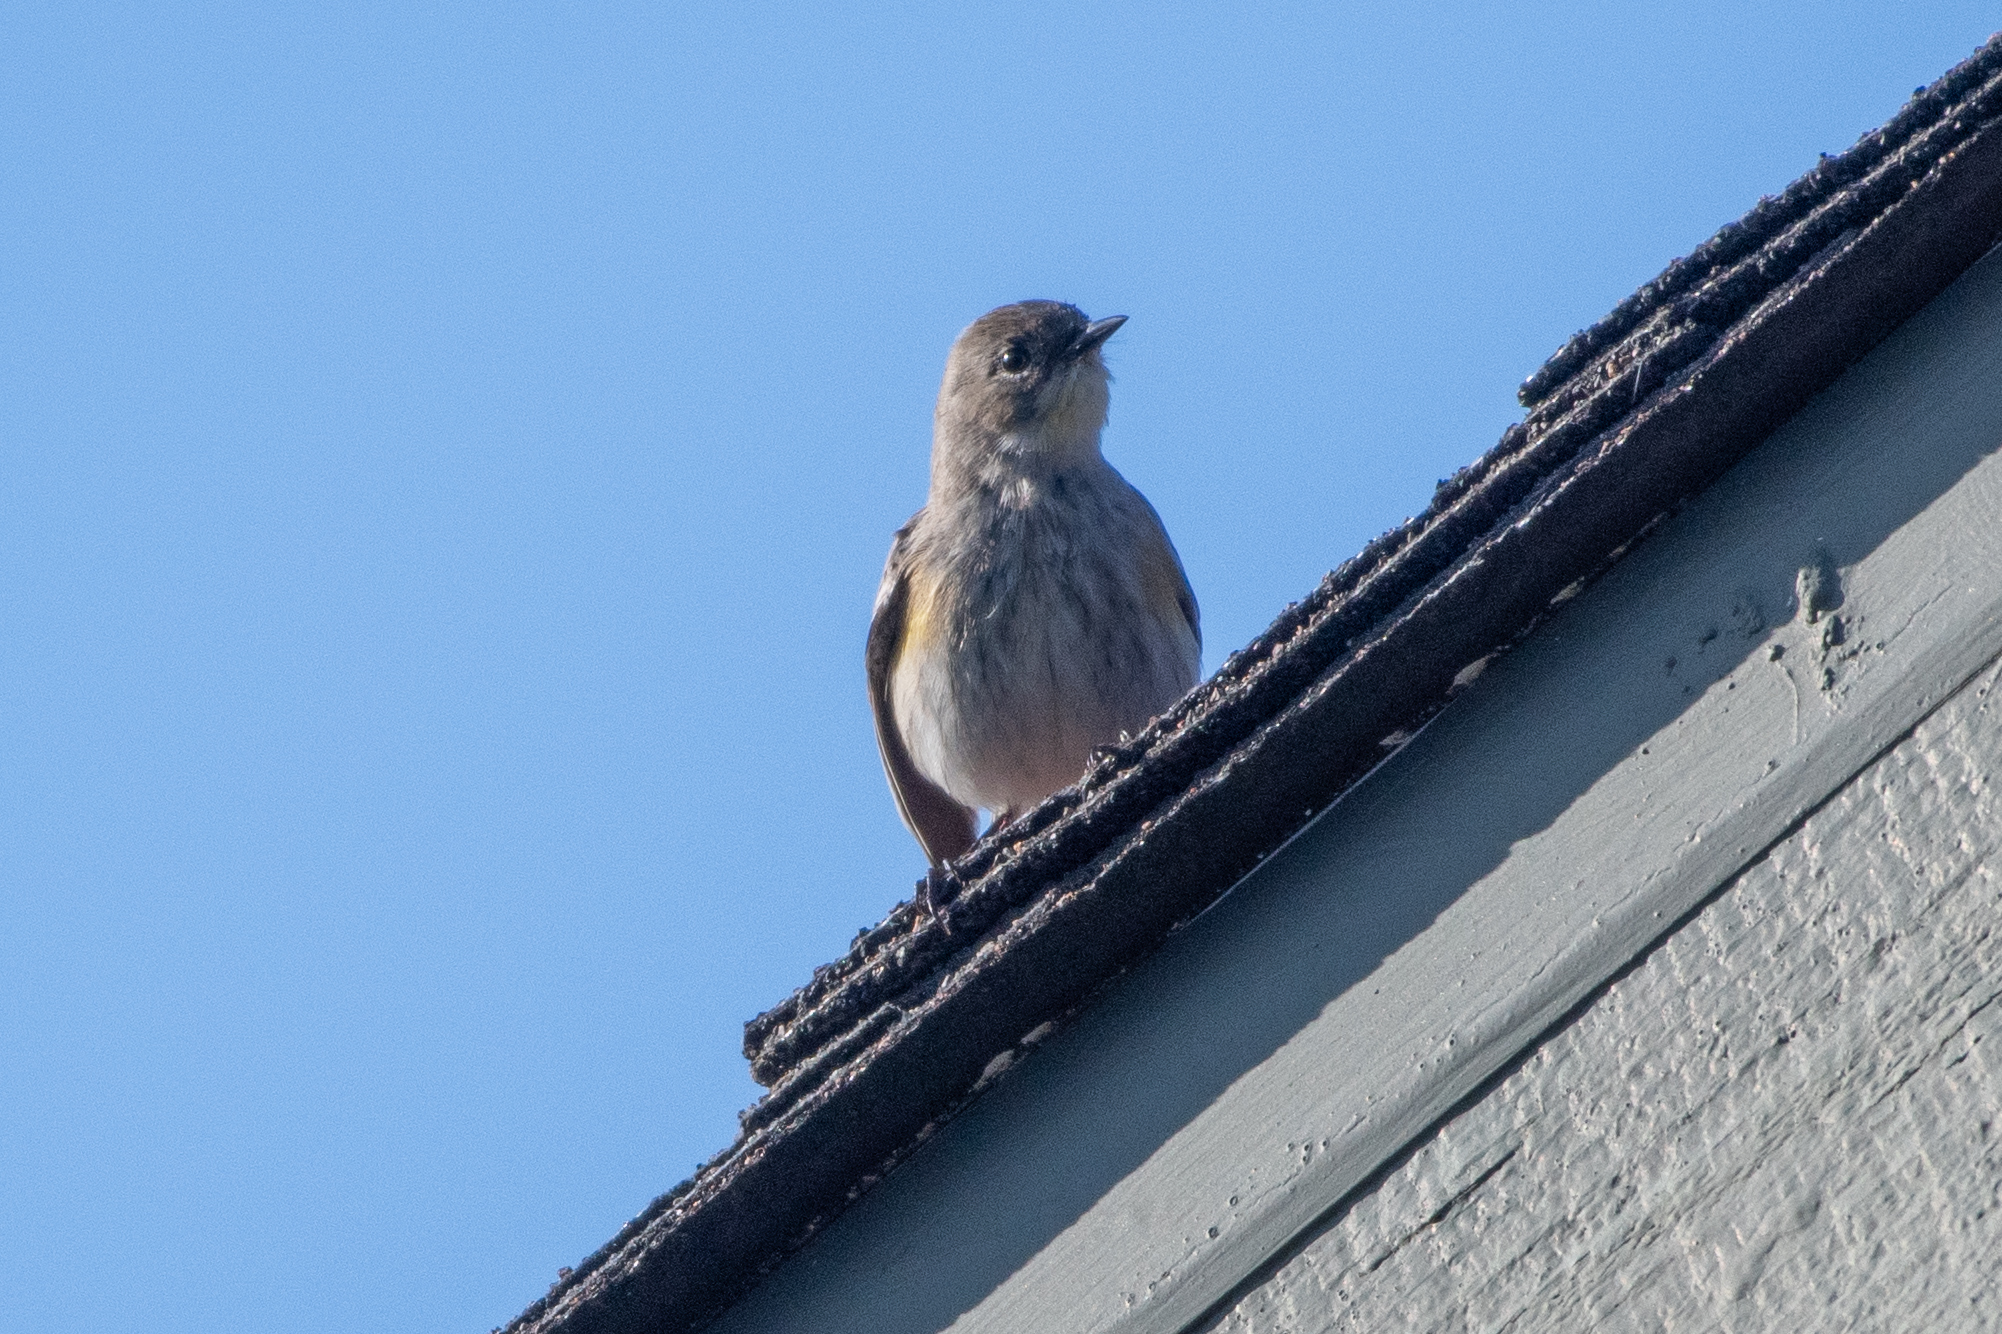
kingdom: Animalia
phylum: Chordata
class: Aves
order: Passeriformes
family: Parulidae
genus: Setophaga
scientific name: Setophaga coronata
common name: Myrtle warbler
